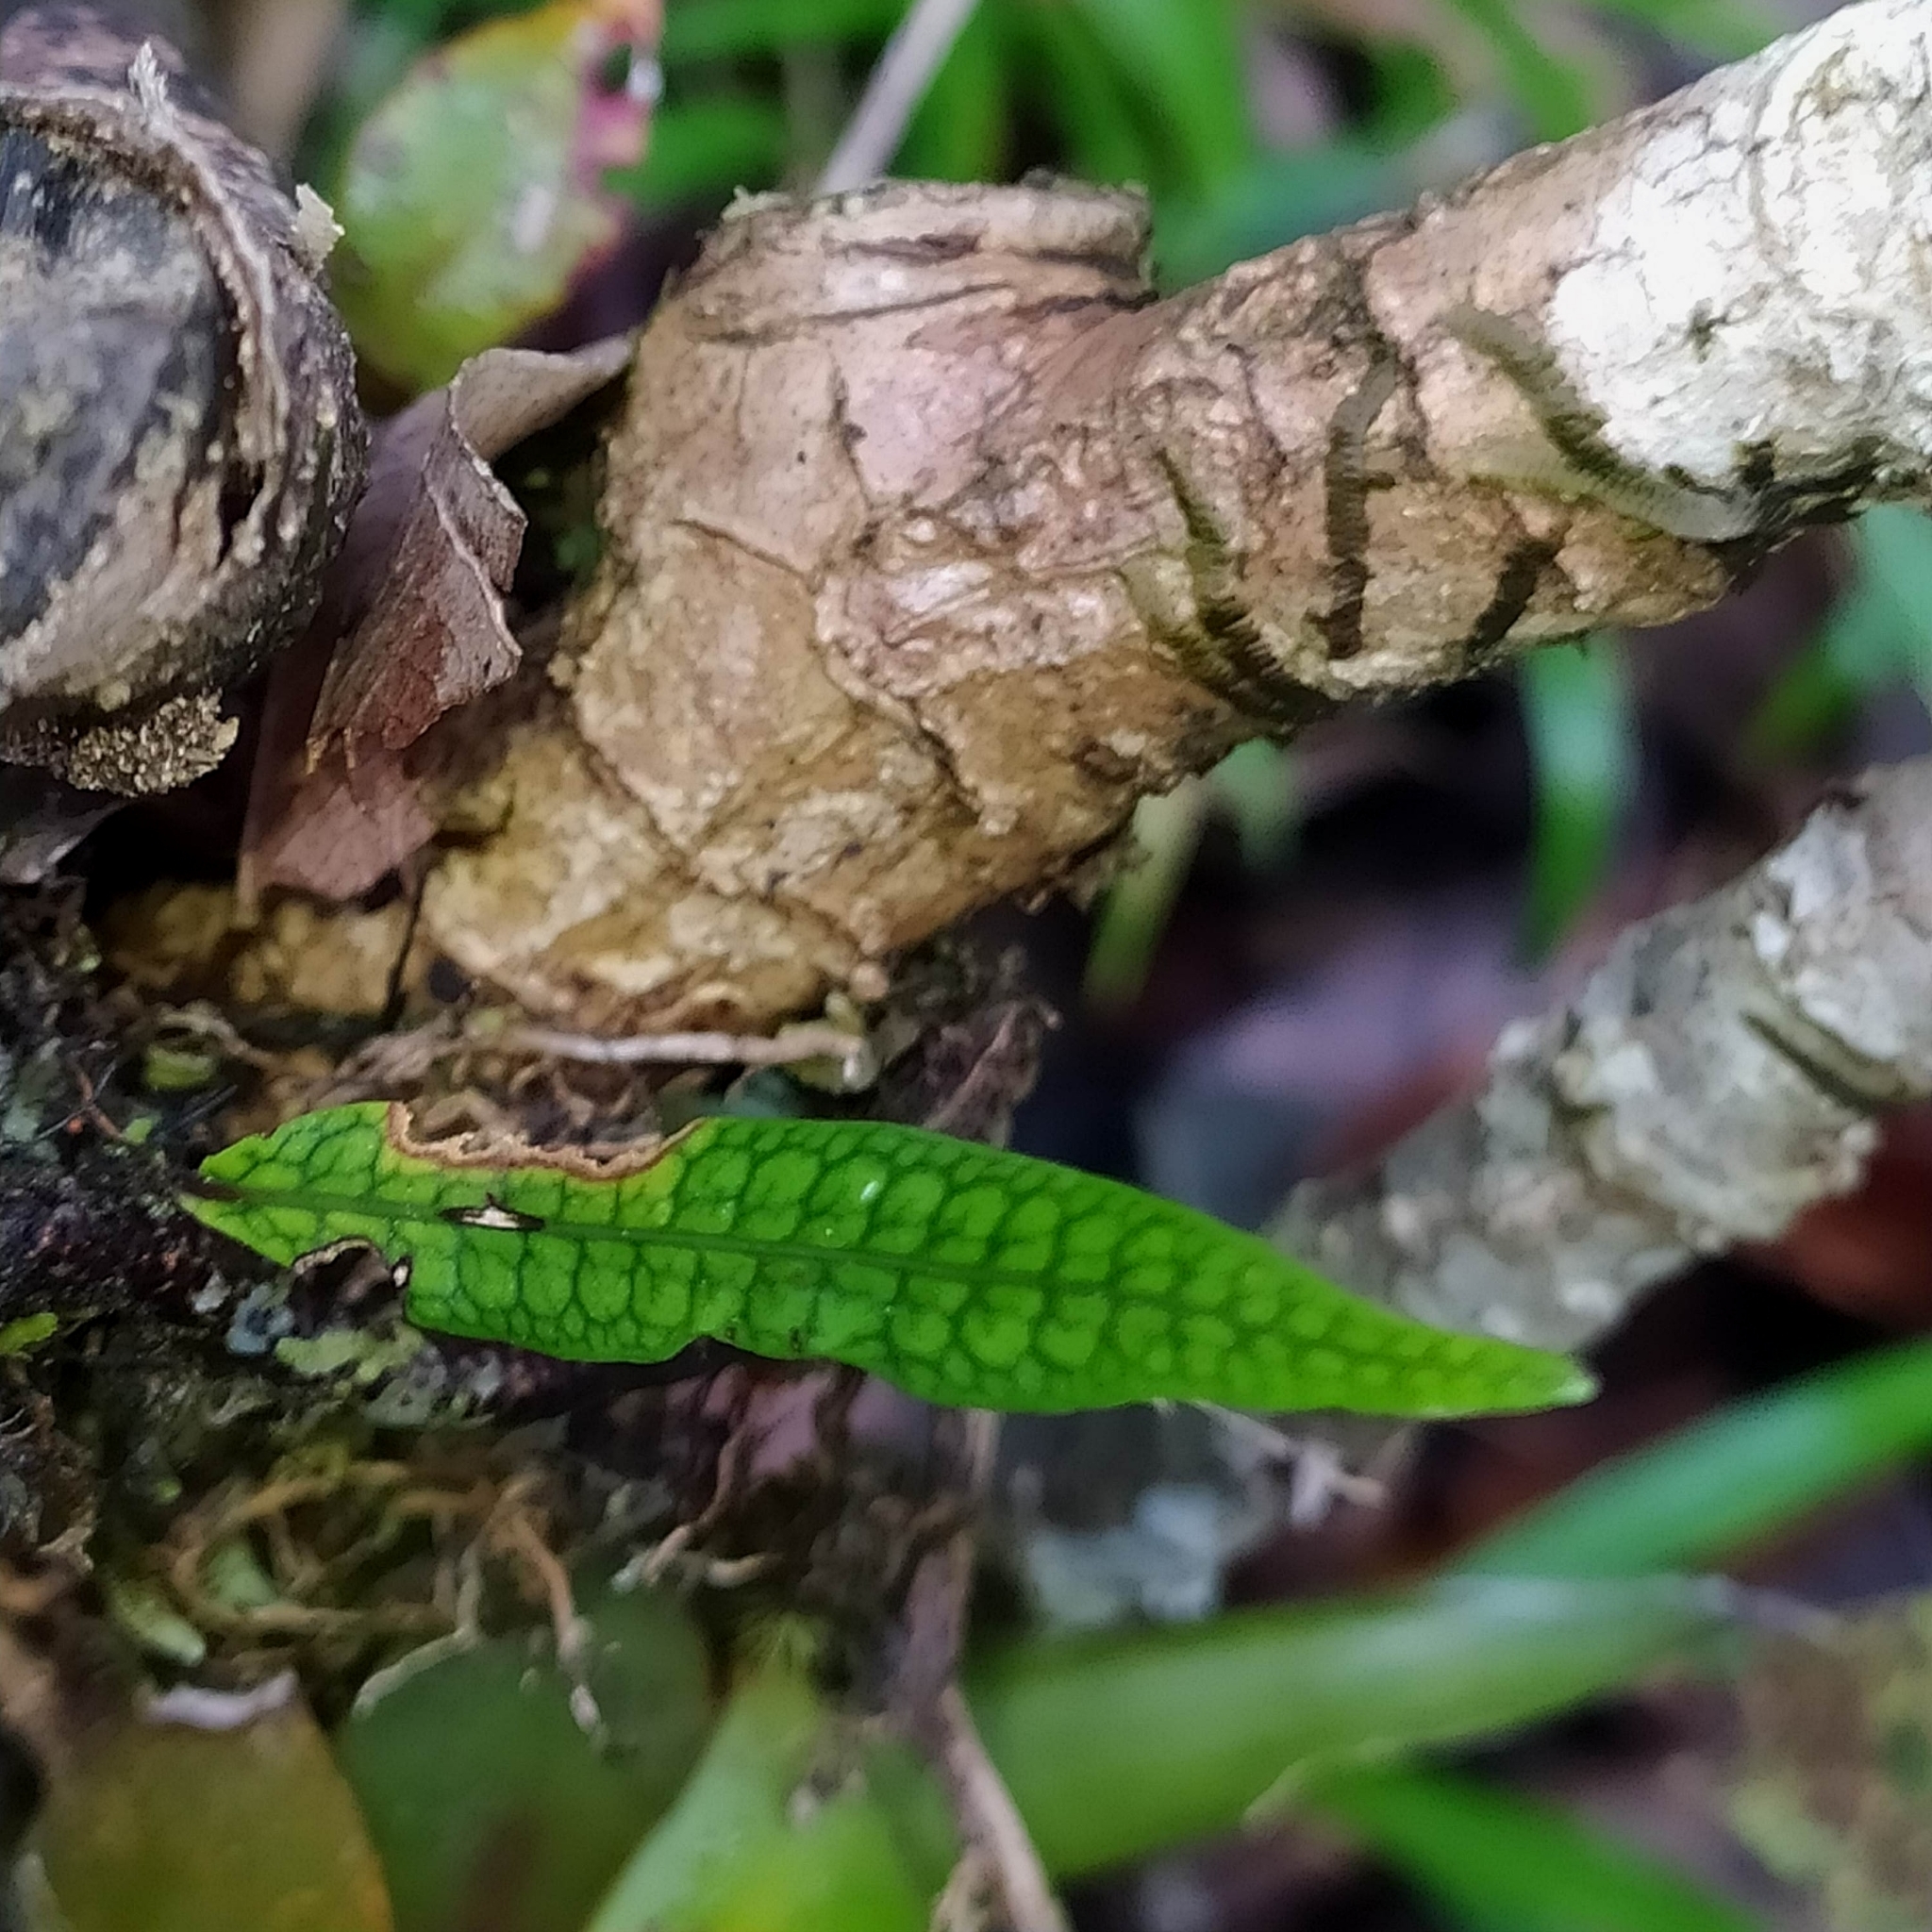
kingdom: Plantae
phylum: Tracheophyta
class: Polypodiopsida
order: Polypodiales
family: Polypodiaceae
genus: Microgramma
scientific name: Microgramma lycopodioides
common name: Bastard catclaw
